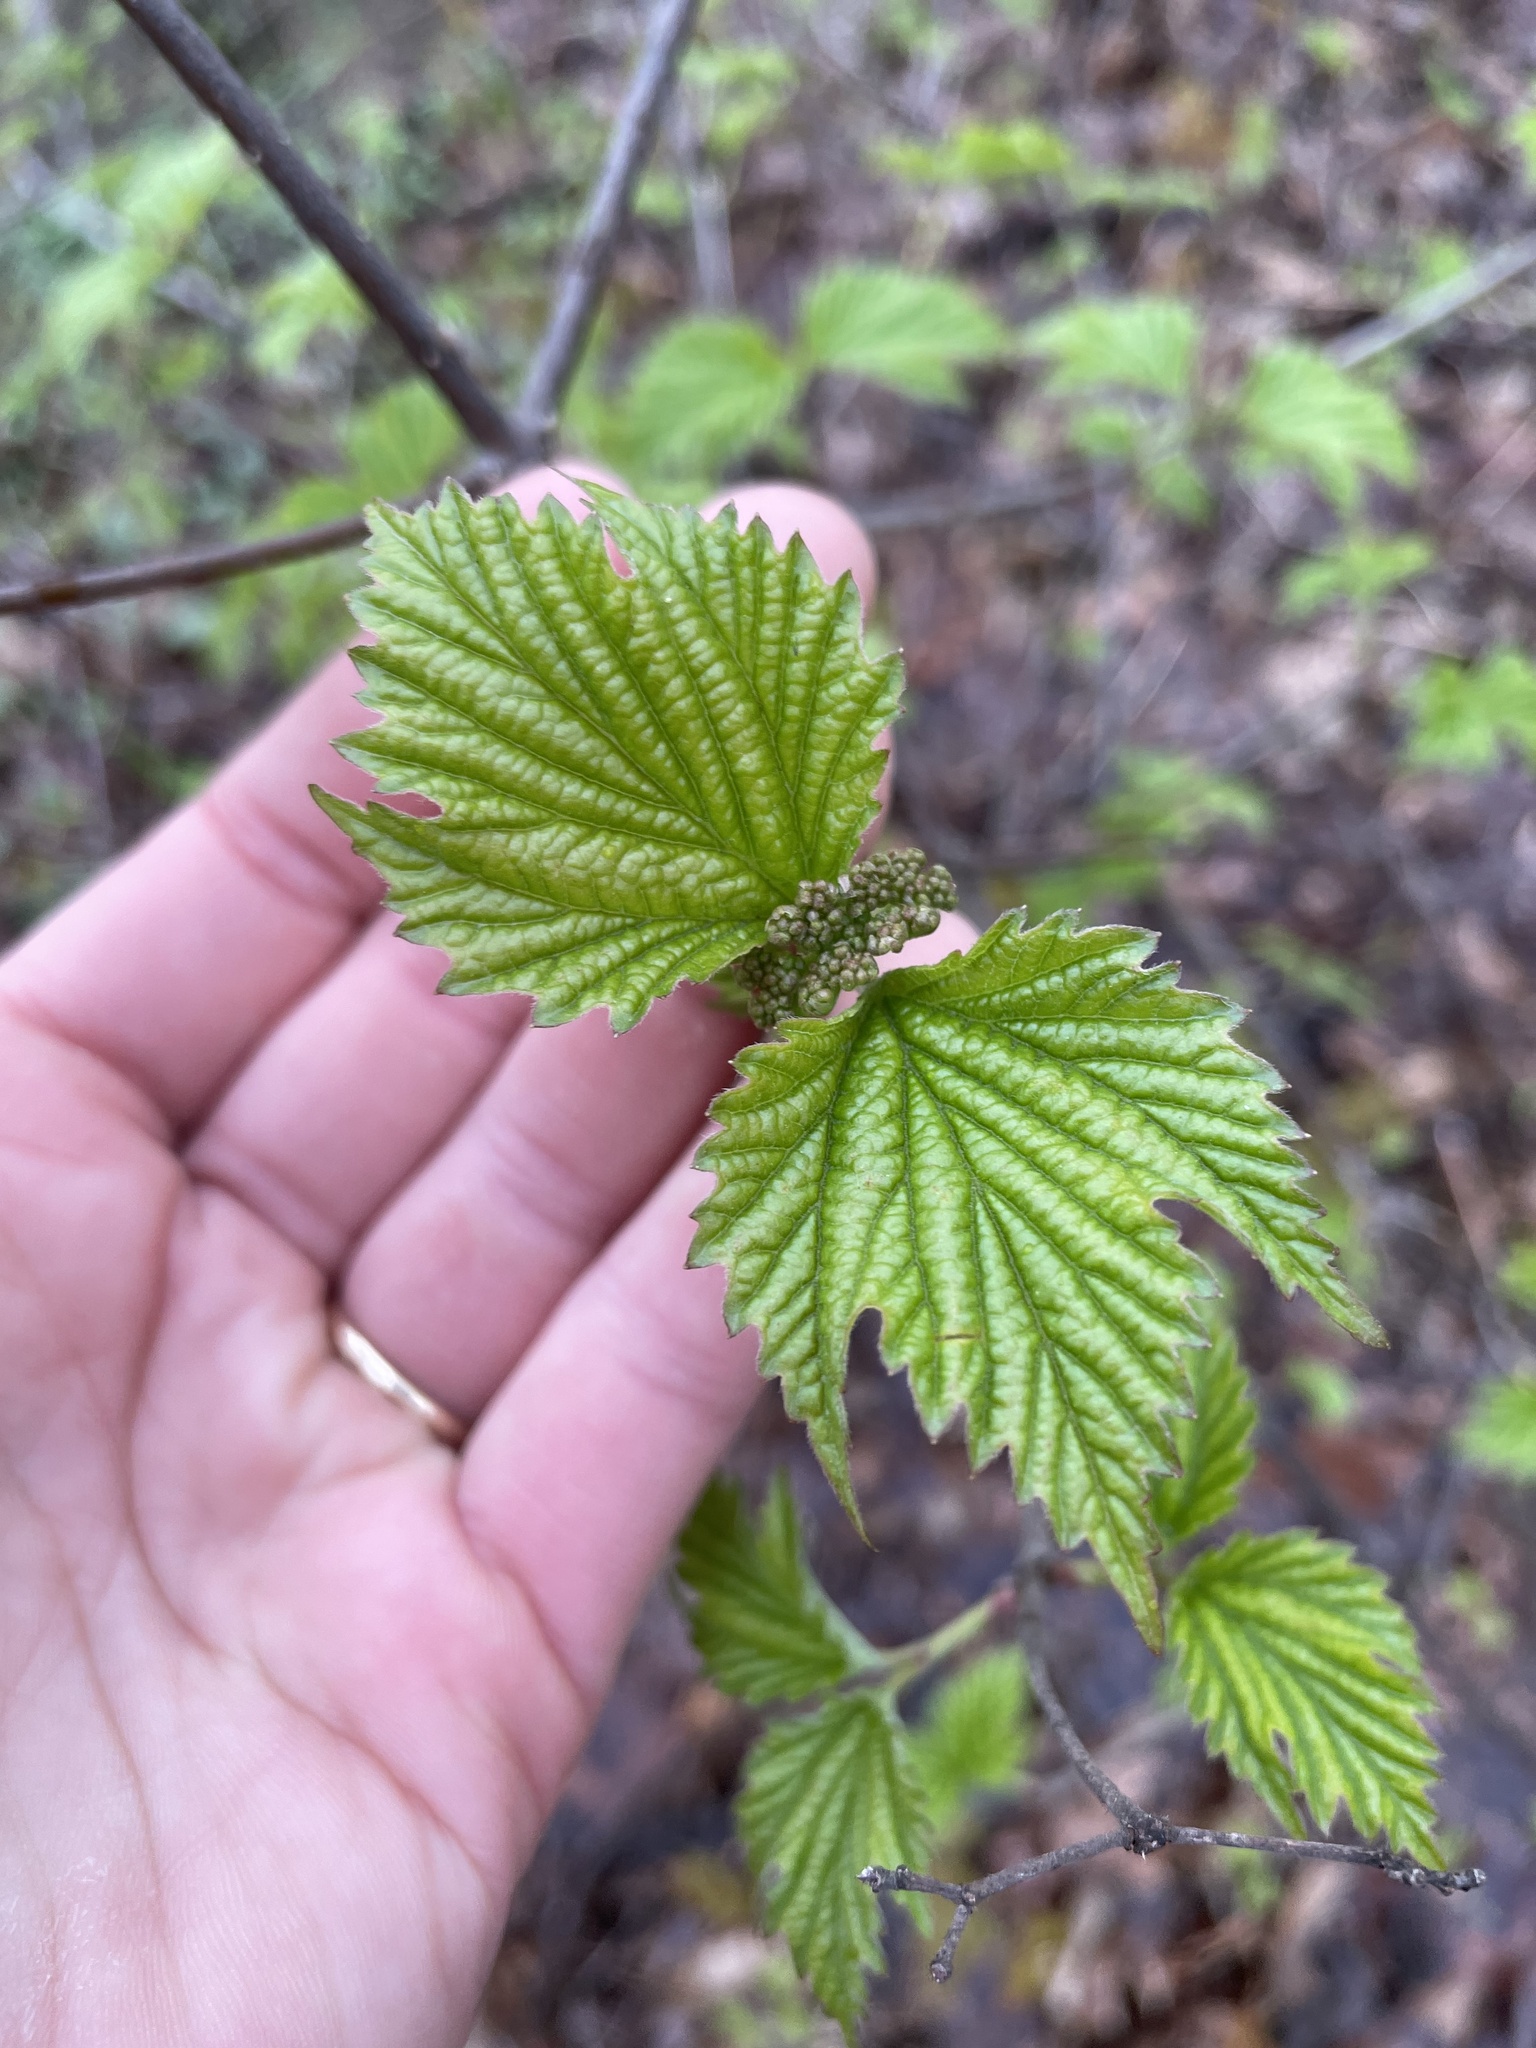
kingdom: Plantae
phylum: Tracheophyta
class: Magnoliopsida
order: Dipsacales
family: Viburnaceae
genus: Viburnum
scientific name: Viburnum acerifolium
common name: Dockmackie
